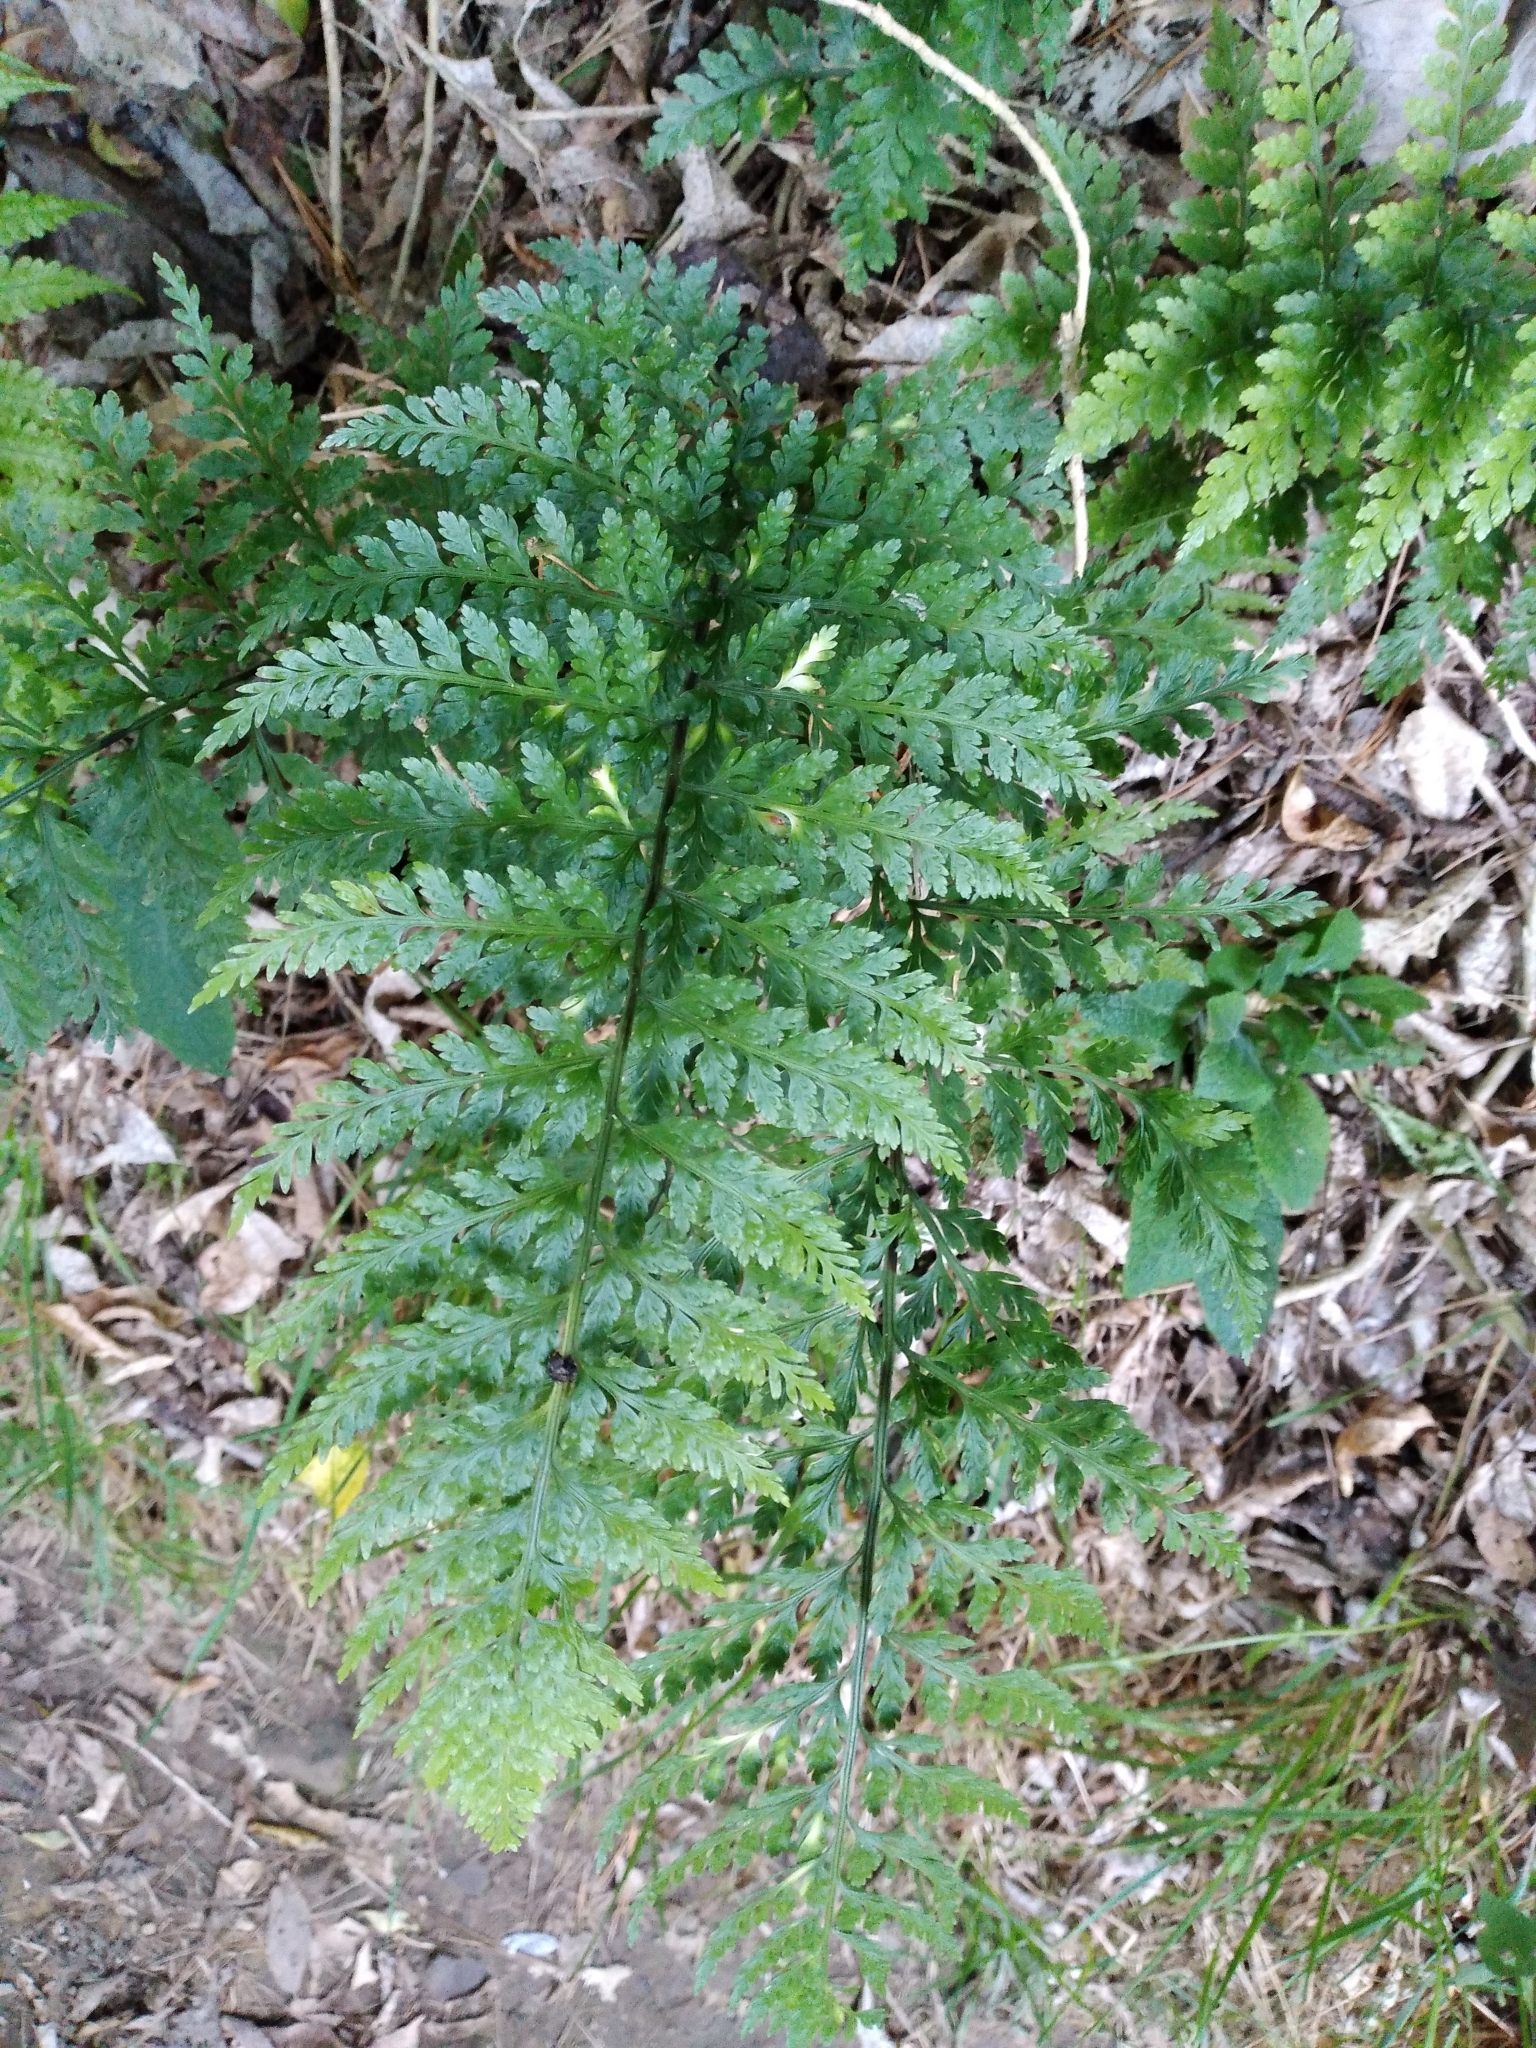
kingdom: Plantae
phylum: Tracheophyta
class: Polypodiopsida
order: Polypodiales
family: Aspleniaceae
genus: Asplenium
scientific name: Asplenium
